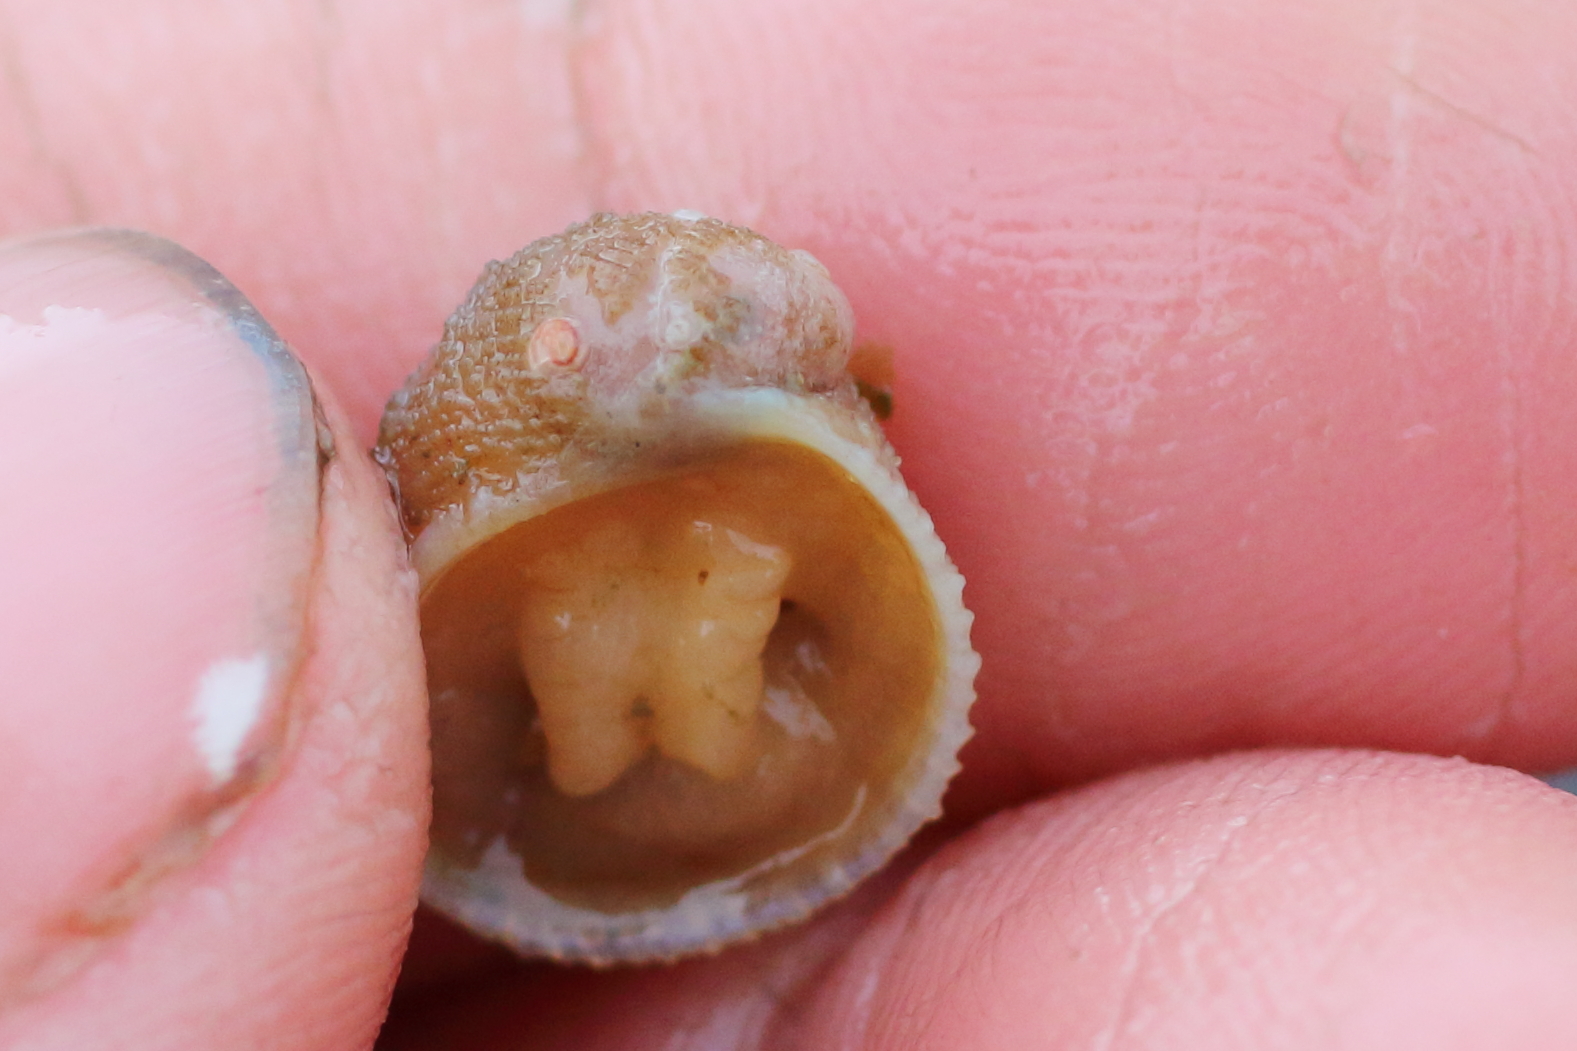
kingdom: Animalia
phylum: Mollusca
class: Gastropoda
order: Littorinimorpha
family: Velutinidae
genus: Velutina
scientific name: Velutina velutina
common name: Smooth lamellaria
